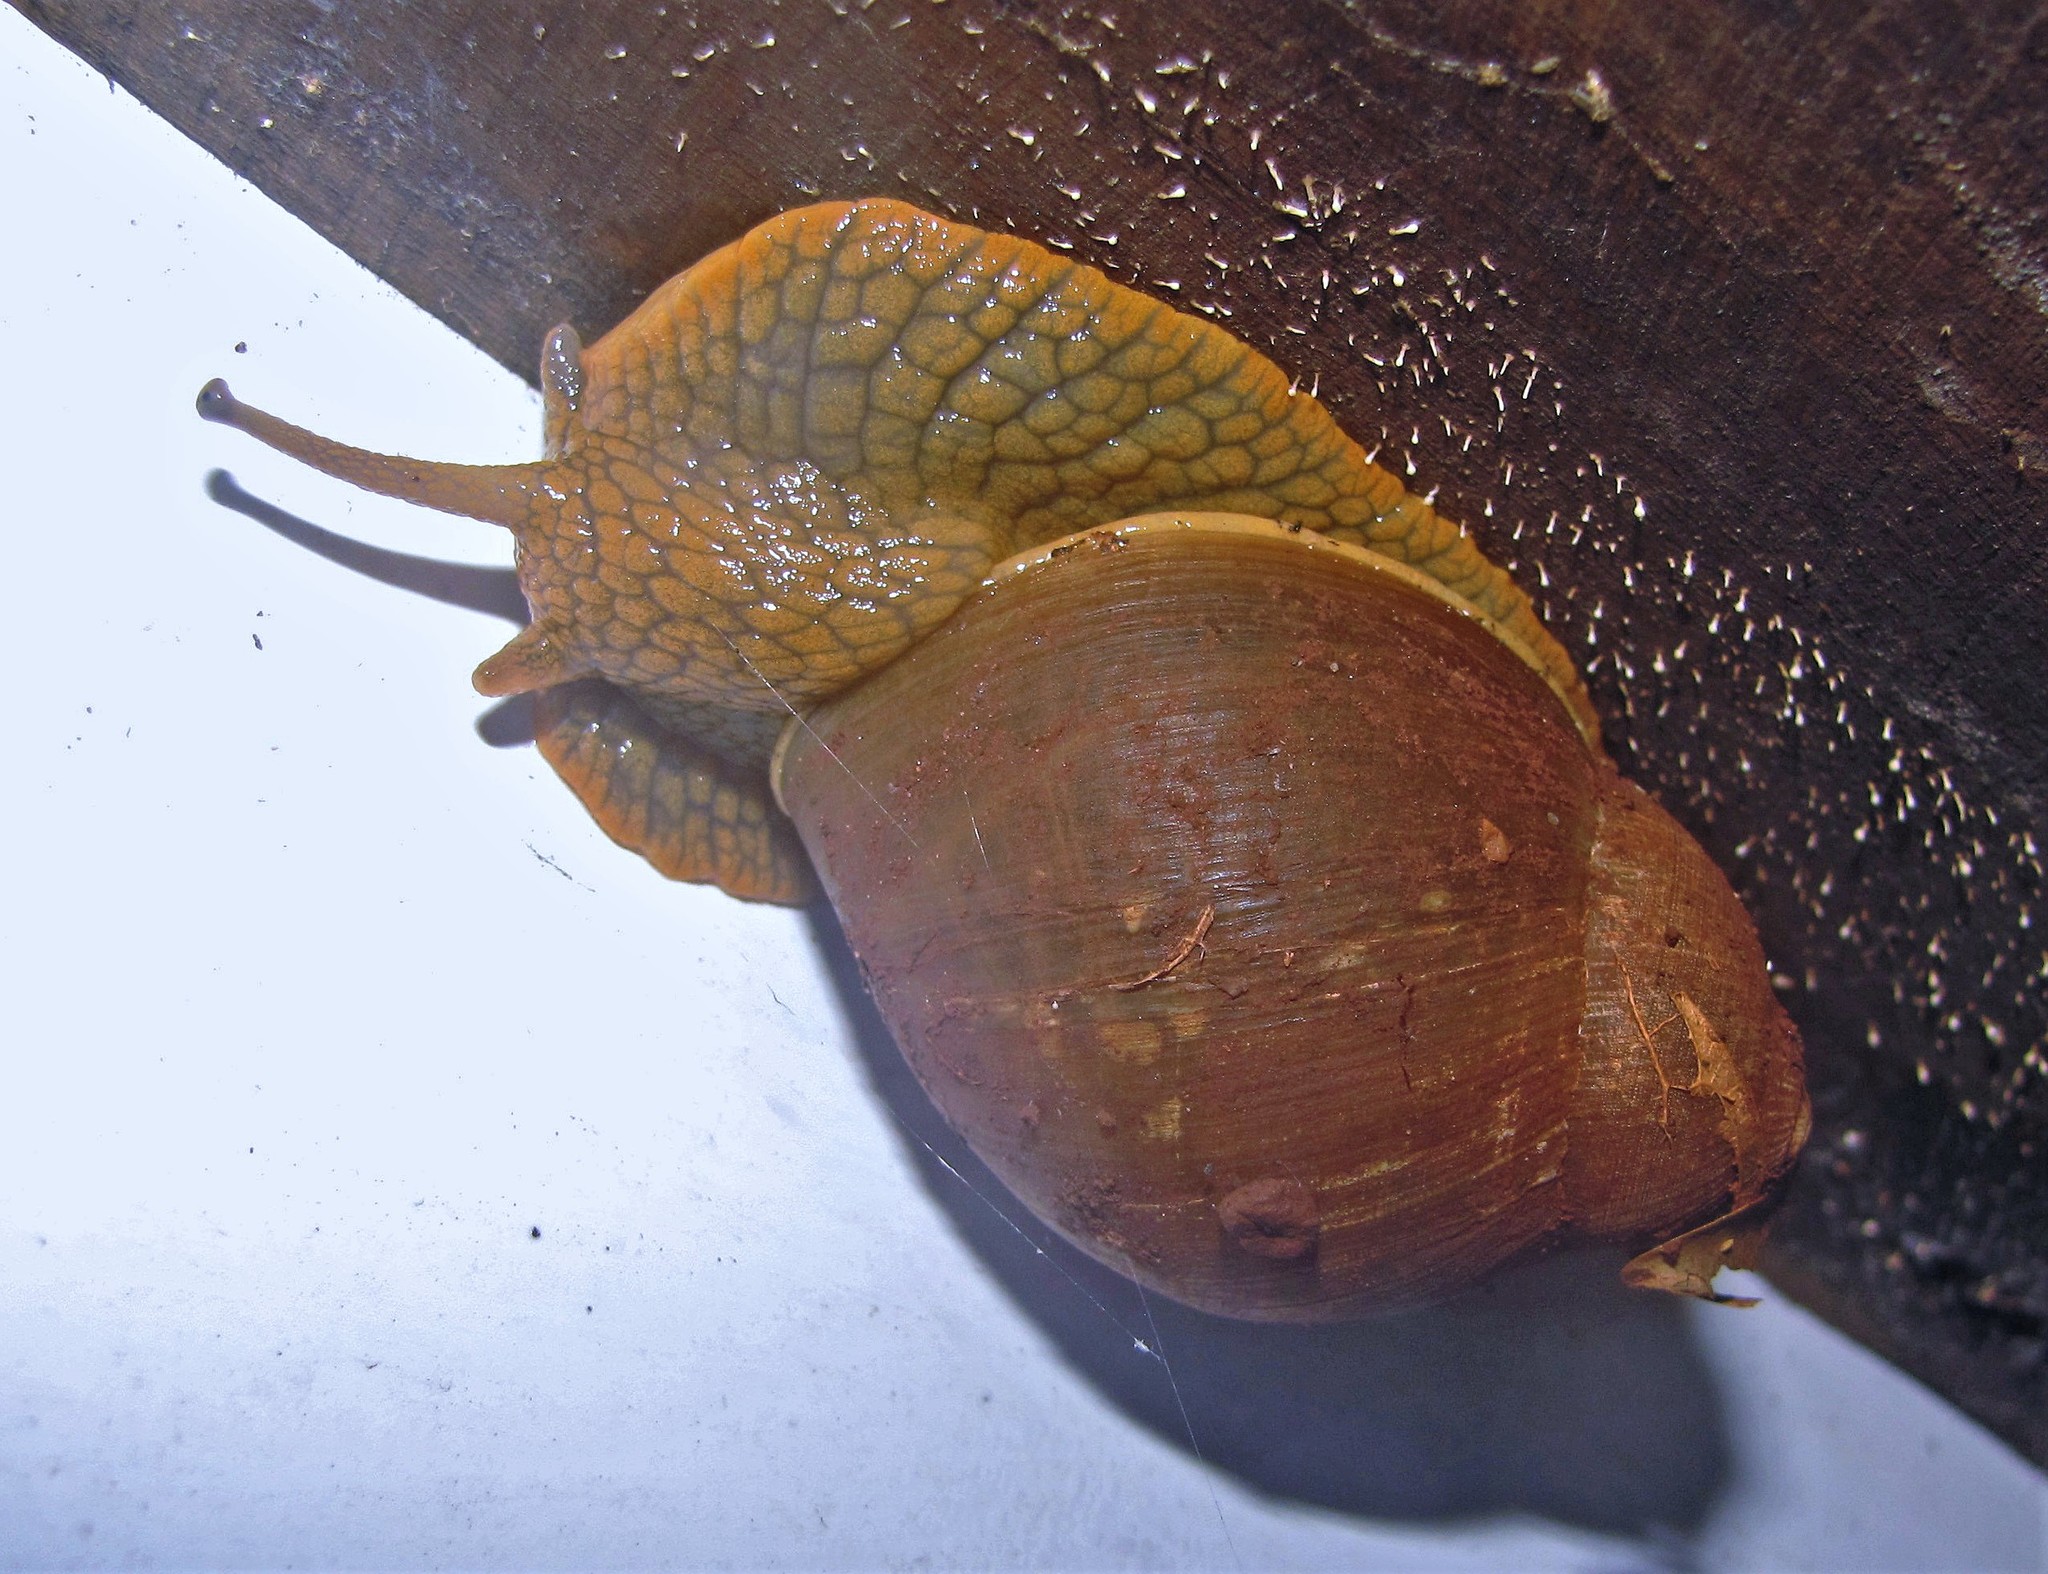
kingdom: Animalia
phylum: Mollusca
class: Gastropoda
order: Stylommatophora
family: Strophocheilidae
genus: Megalobulimus
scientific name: Megalobulimus sanctaepauli
